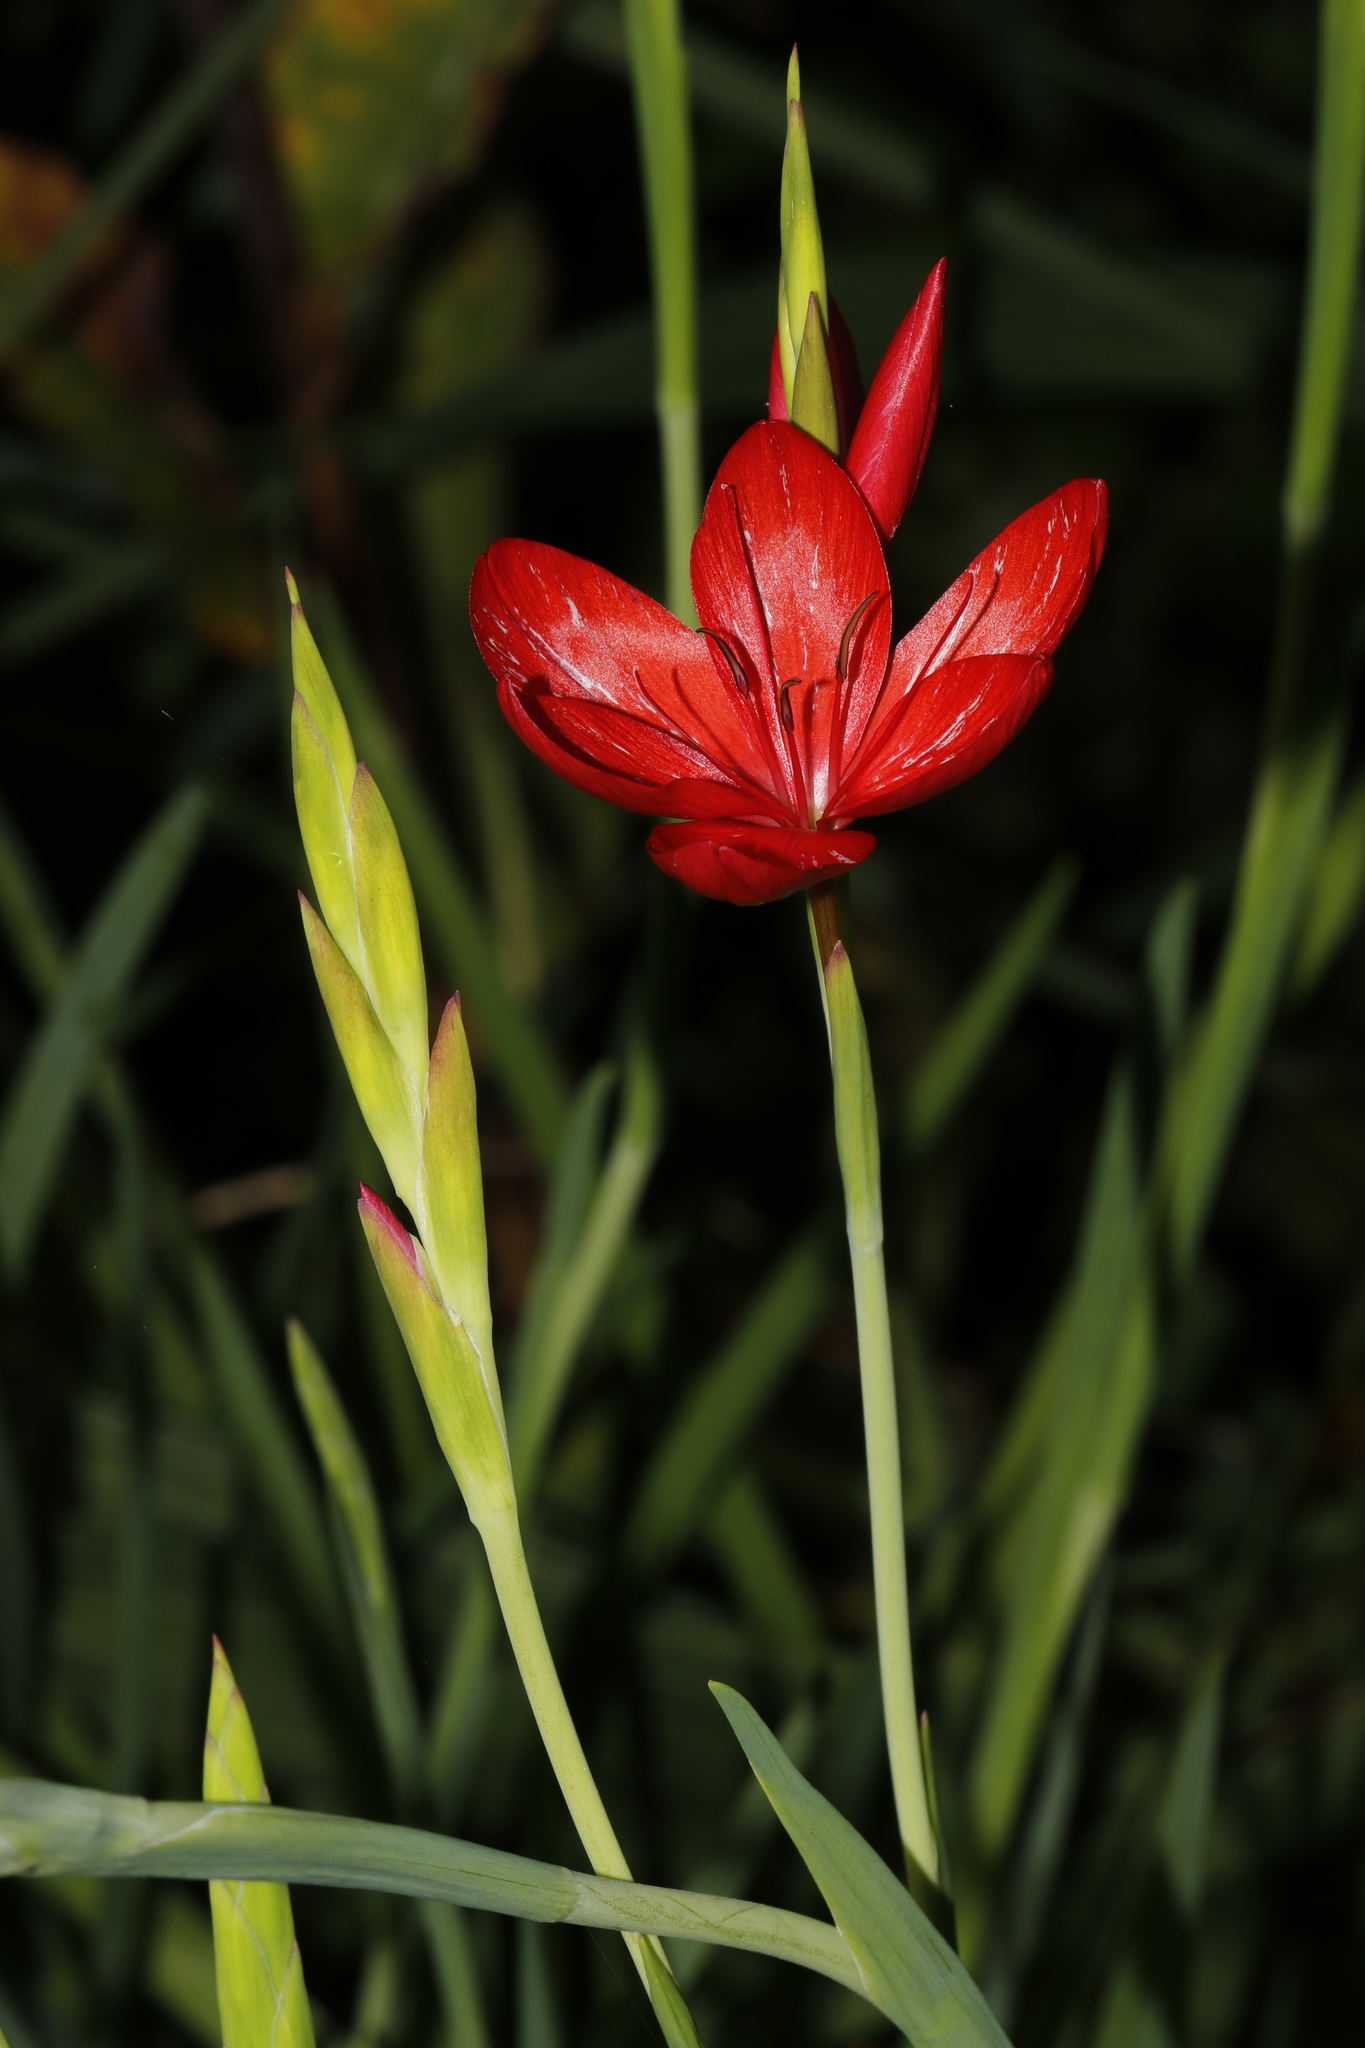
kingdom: Plantae
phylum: Tracheophyta
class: Liliopsida
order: Asparagales
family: Iridaceae
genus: Hesperantha
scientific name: Hesperantha coccinea
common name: River-lily
